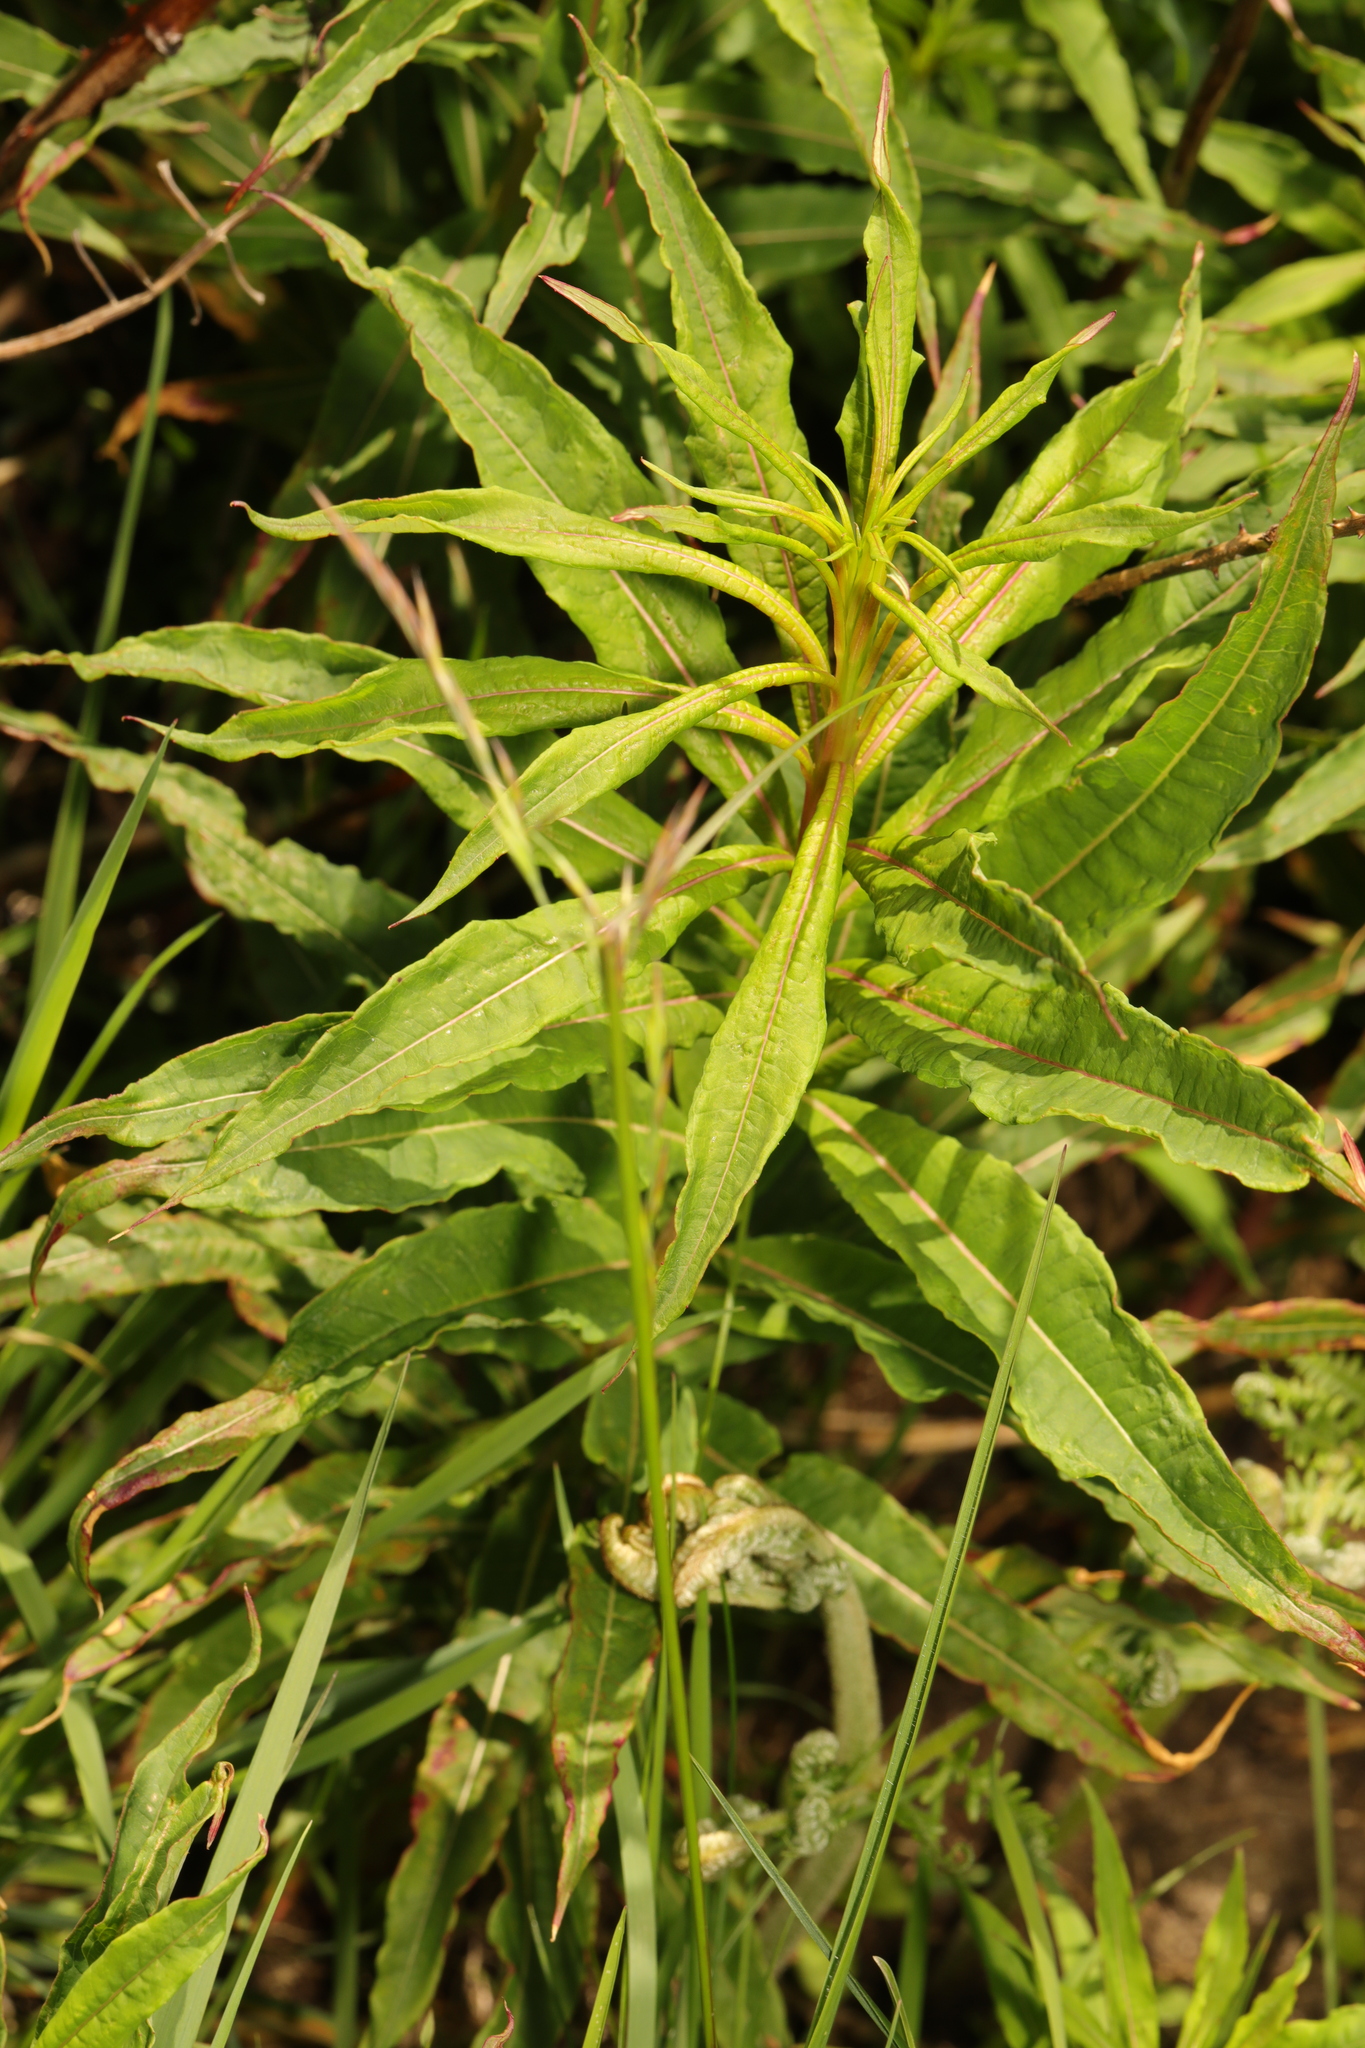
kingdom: Plantae
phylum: Tracheophyta
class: Magnoliopsida
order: Myrtales
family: Onagraceae
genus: Chamaenerion
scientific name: Chamaenerion angustifolium
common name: Fireweed
